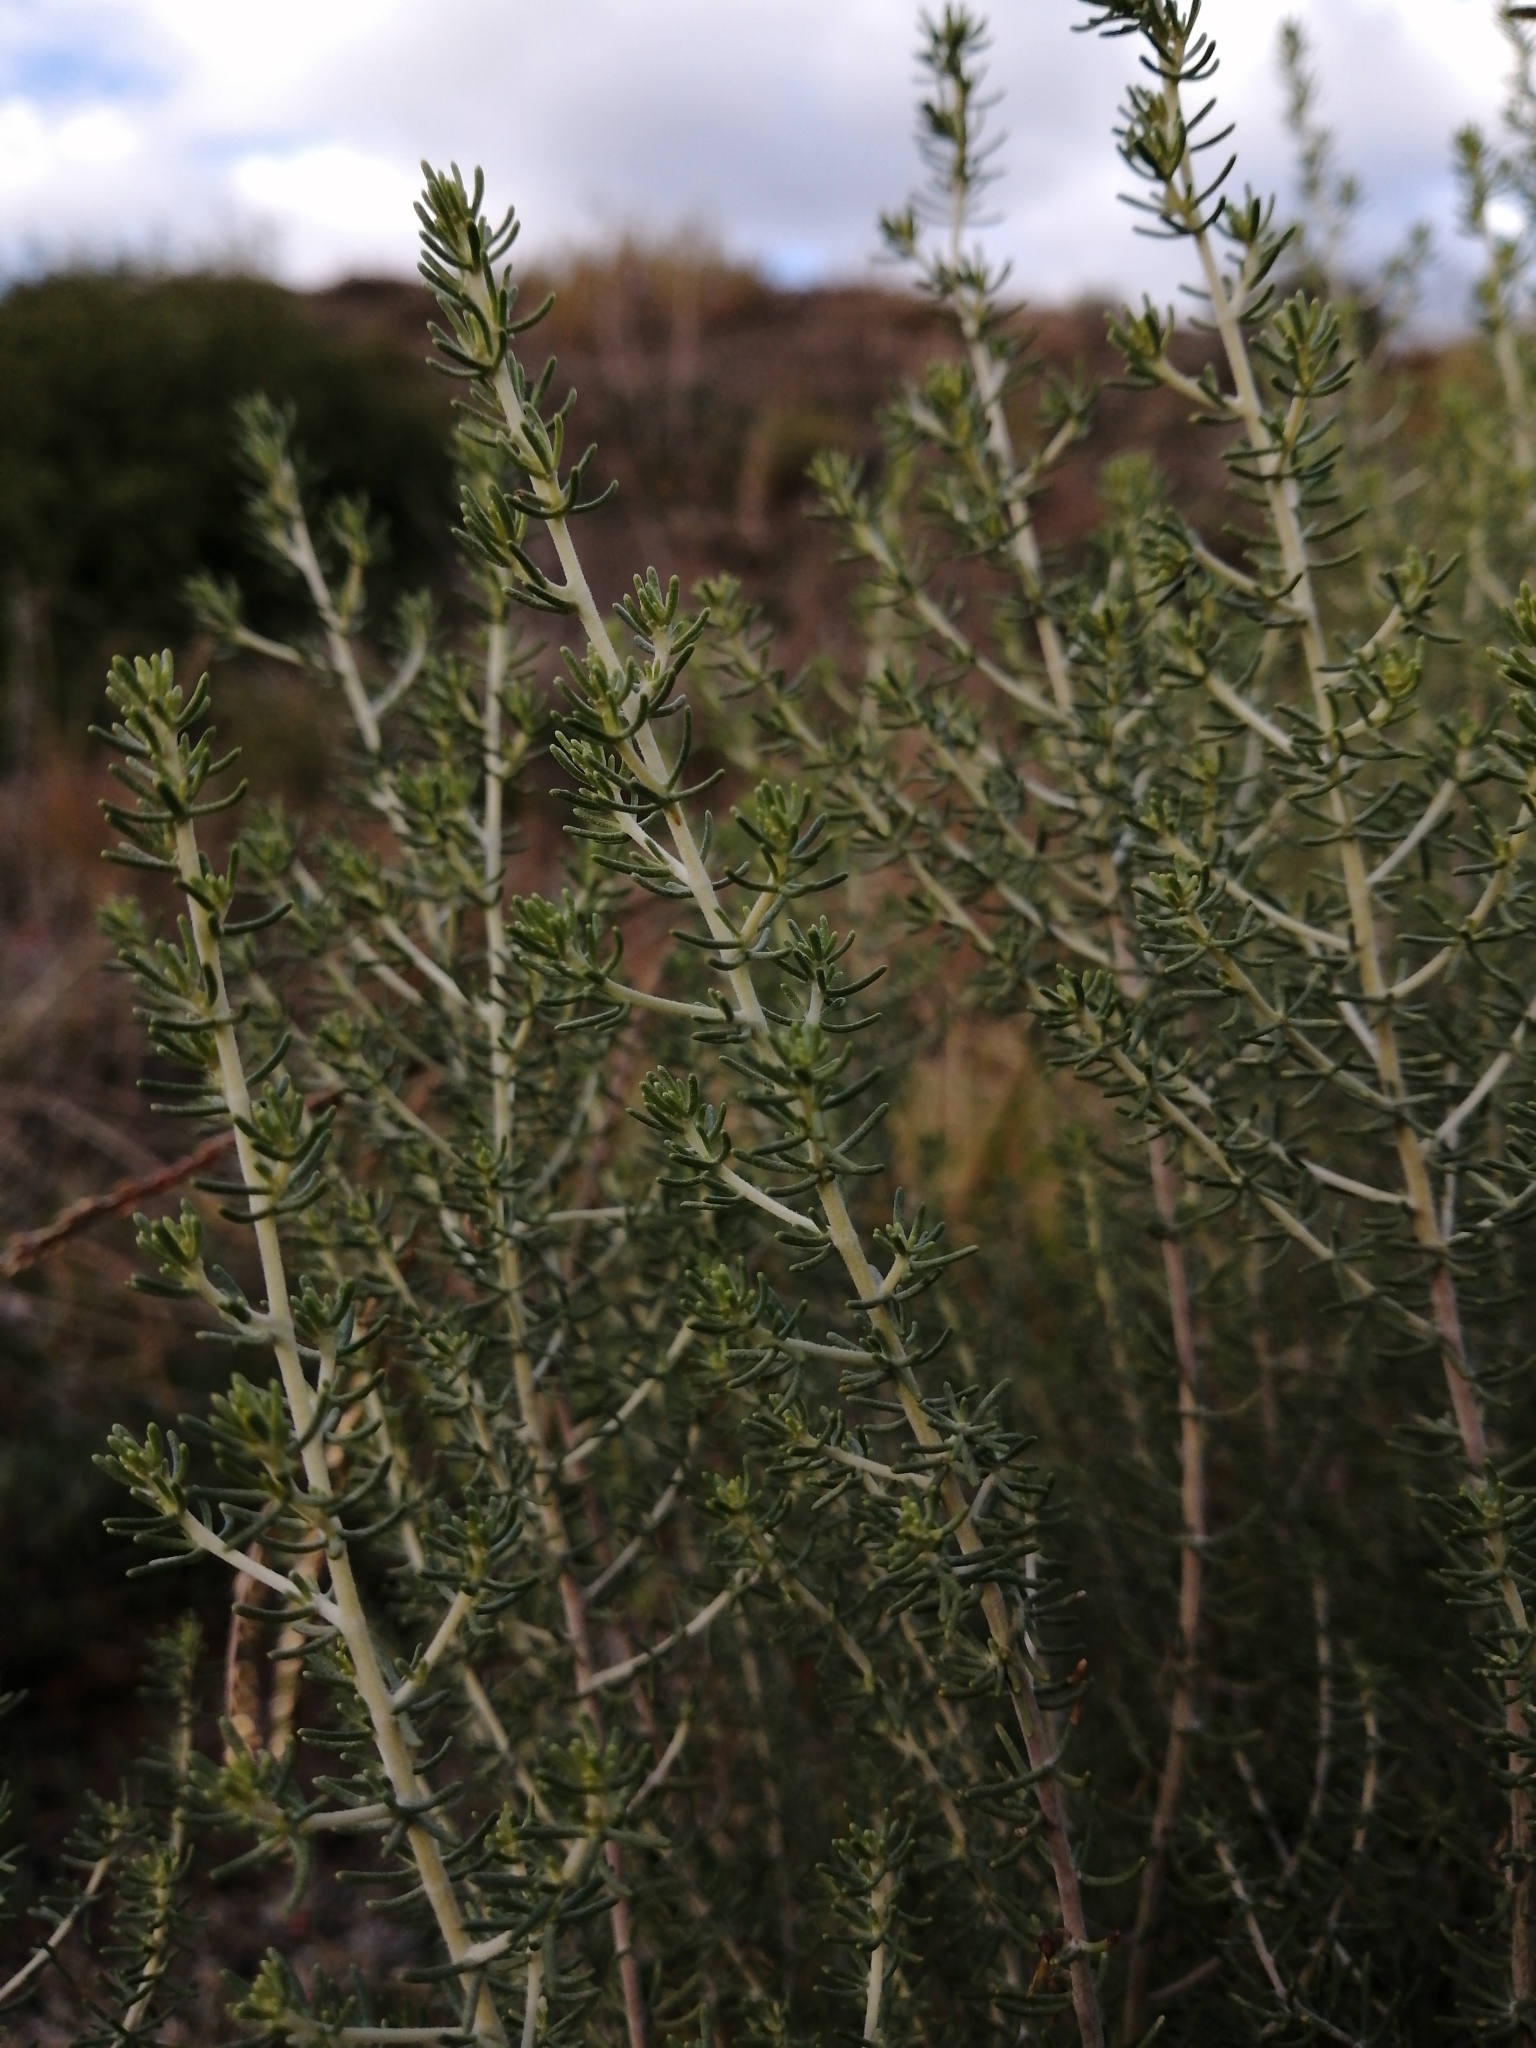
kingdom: Plantae
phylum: Tracheophyta
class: Magnoliopsida
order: Fabales
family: Fabaceae
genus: Aspalathus
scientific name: Aspalathus lactea
